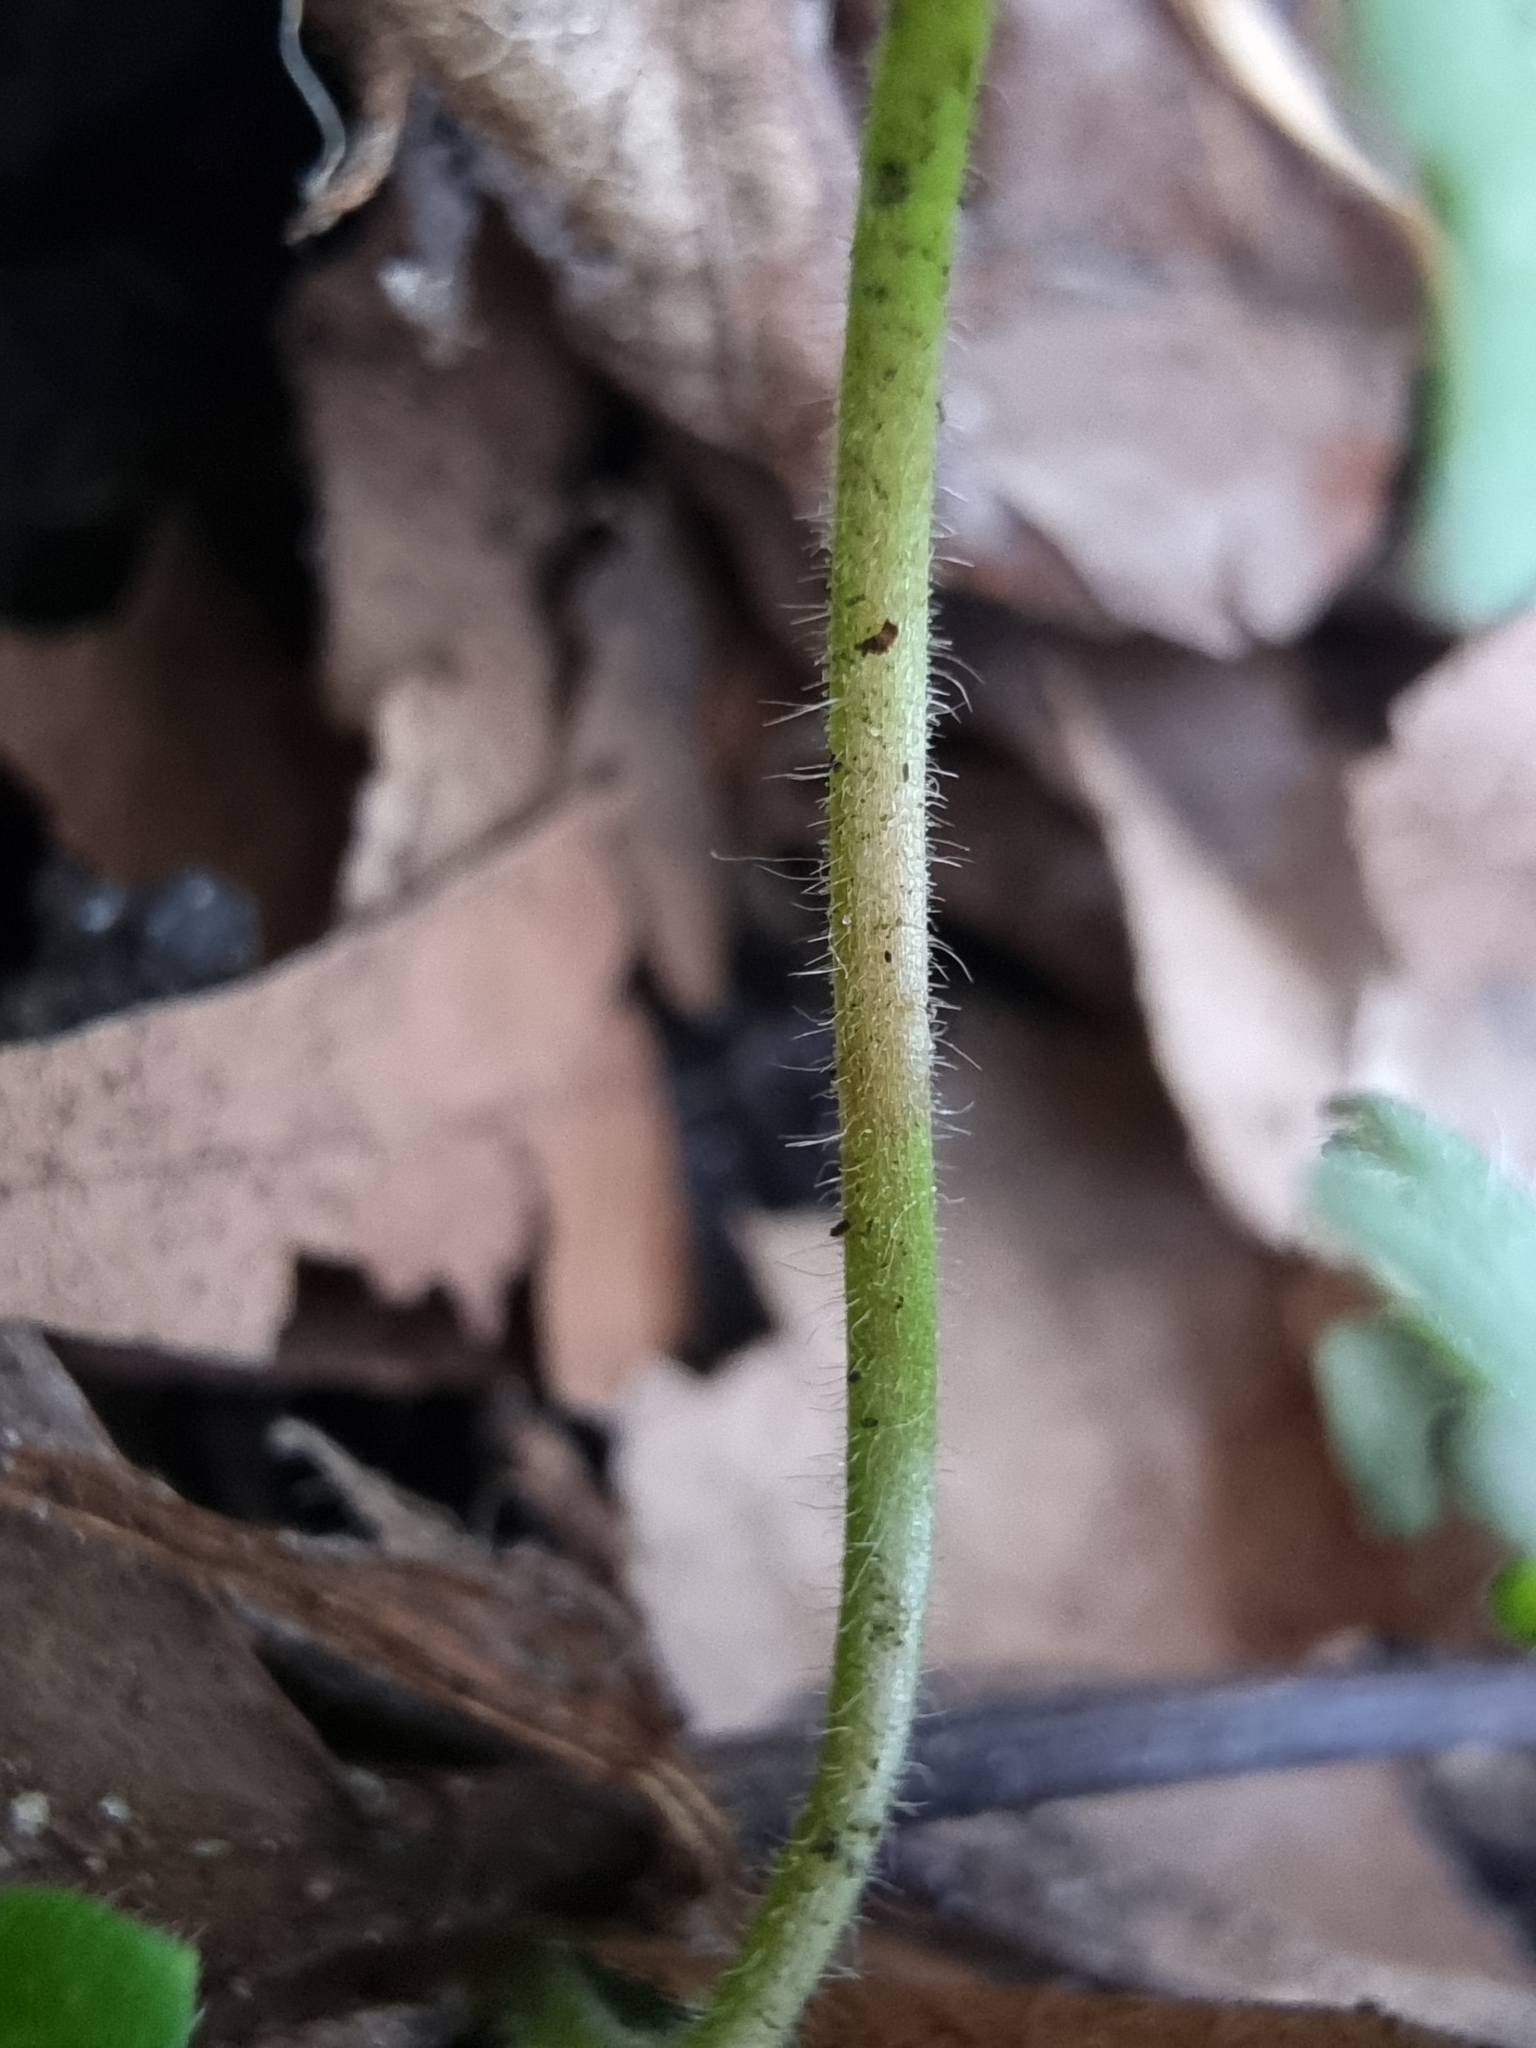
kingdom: Plantae
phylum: Tracheophyta
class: Magnoliopsida
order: Geraniales
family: Geraniaceae
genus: Geranium
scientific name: Geranium molle
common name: Dove's-foot crane's-bill
